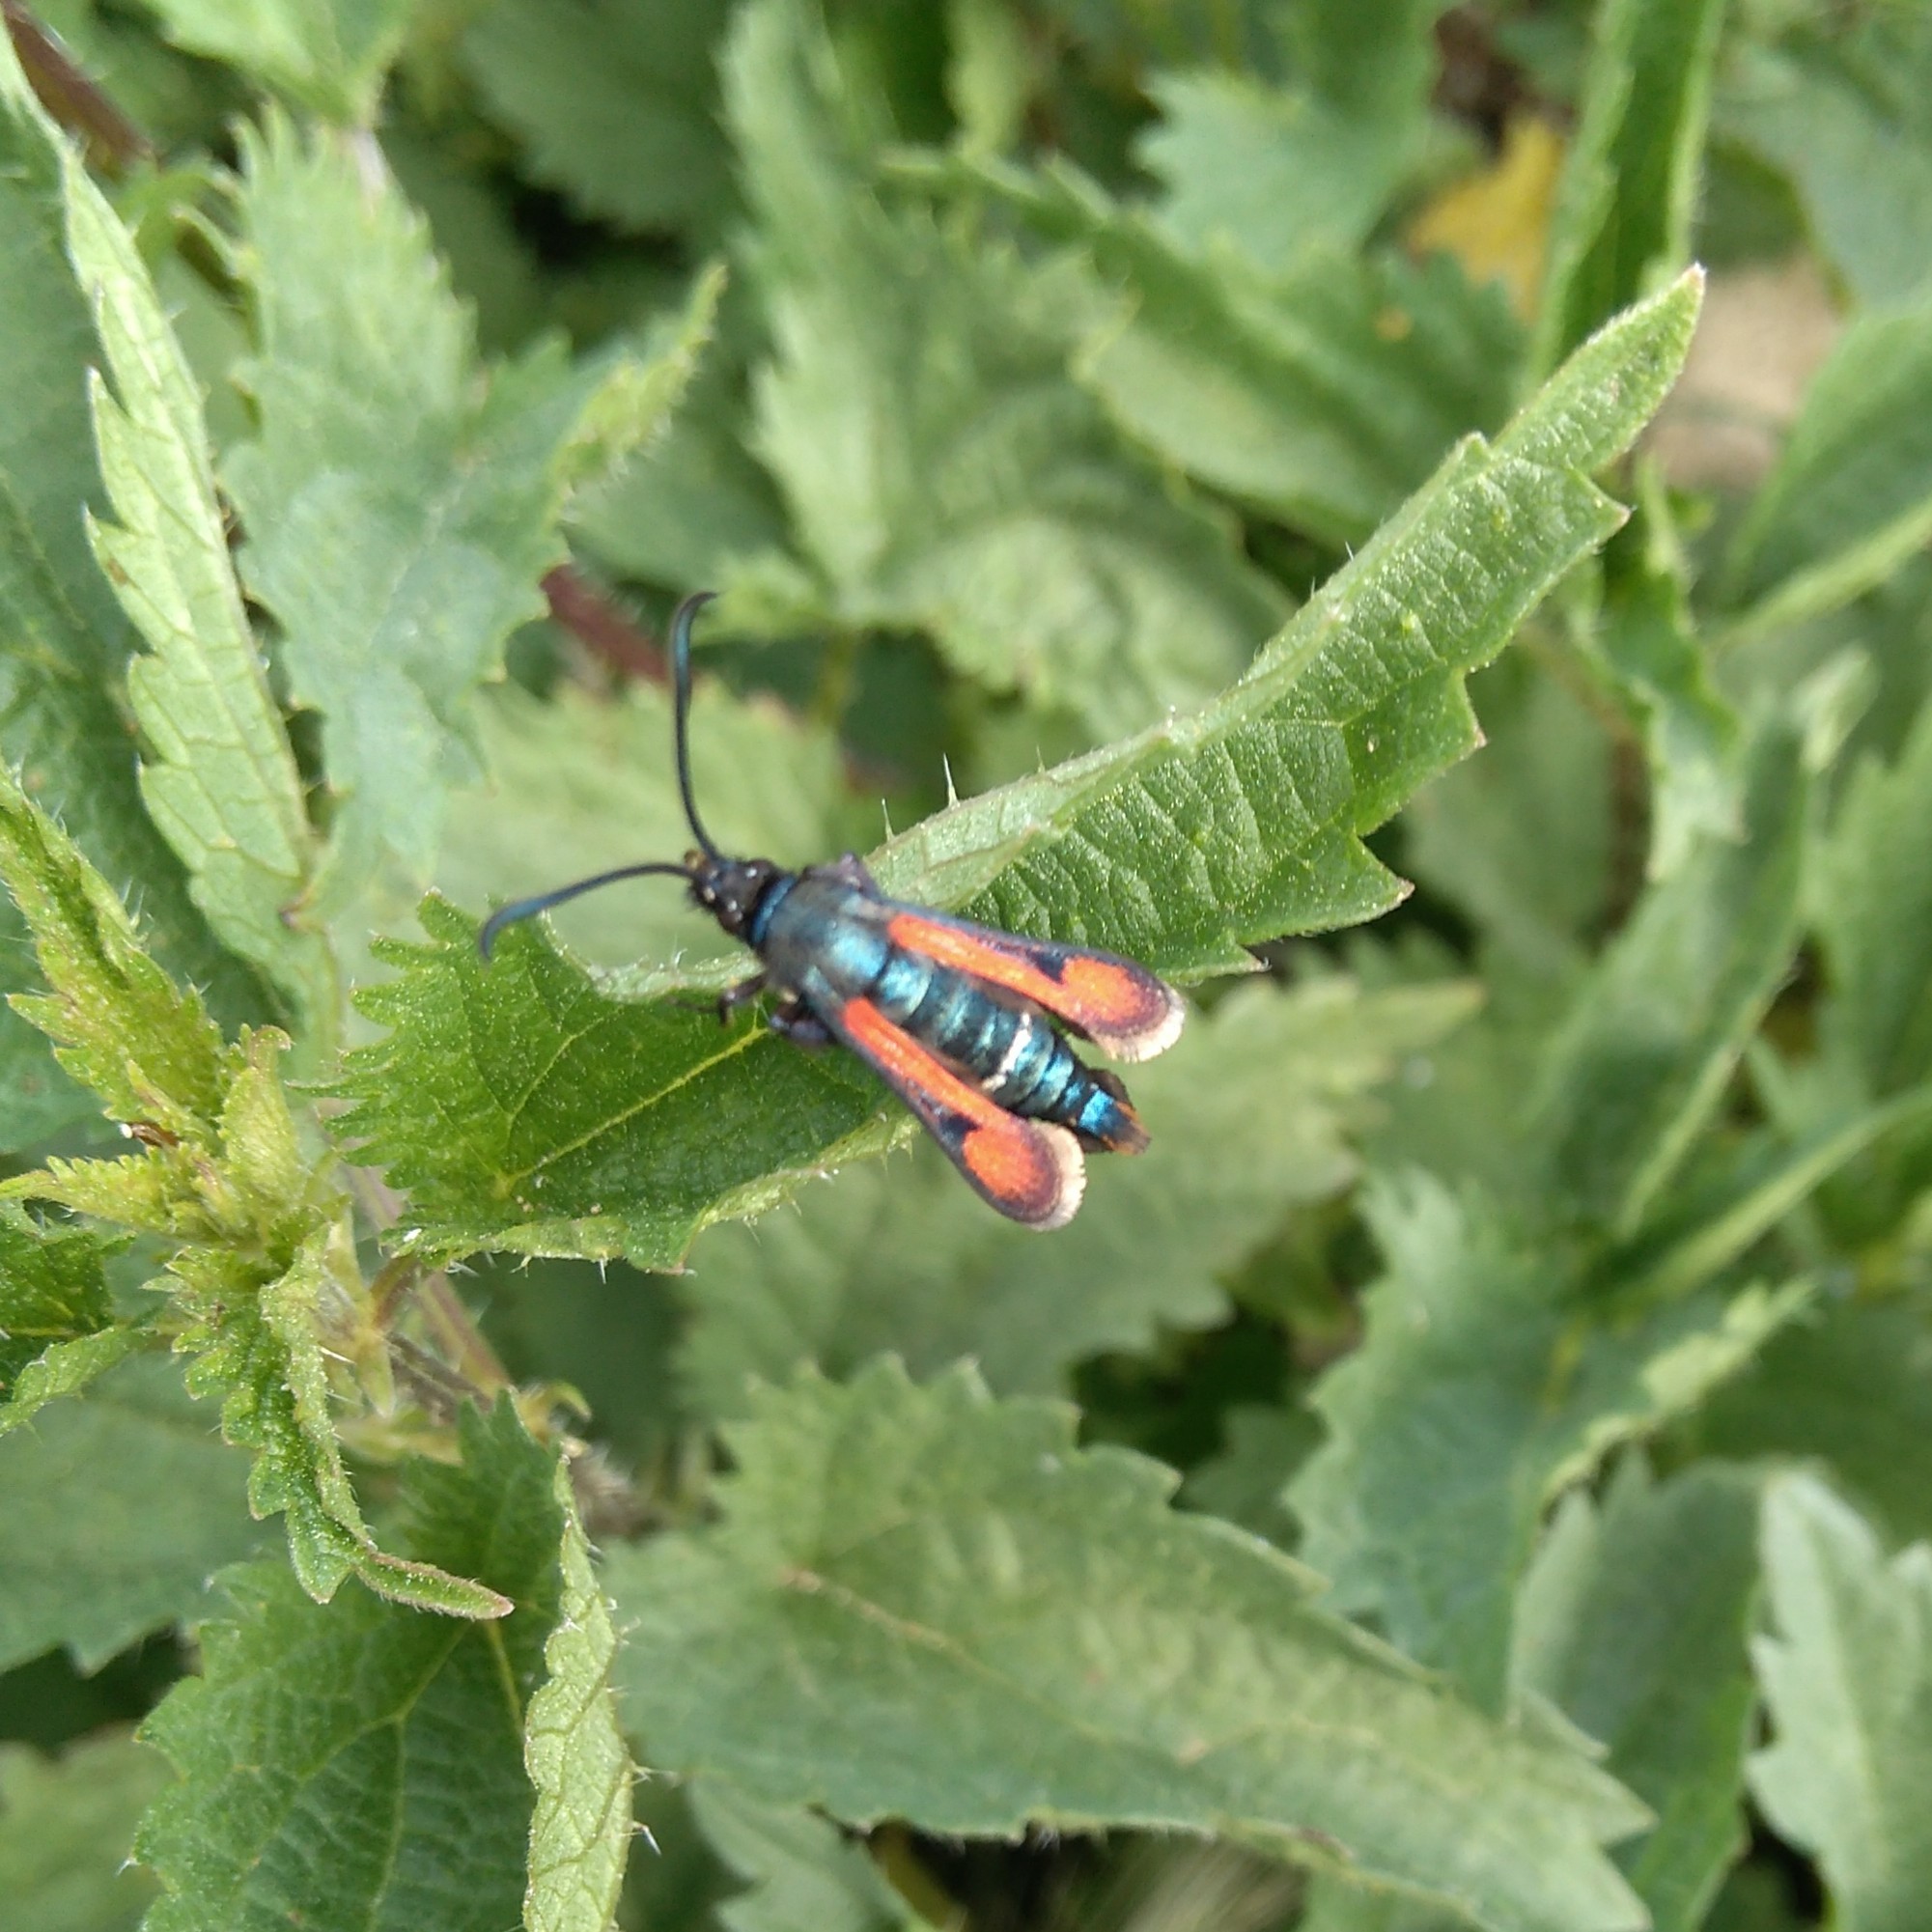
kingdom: Animalia
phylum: Arthropoda
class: Insecta
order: Lepidoptera
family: Sesiidae
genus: Pyropteron
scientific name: Pyropteron chrysidiforme
